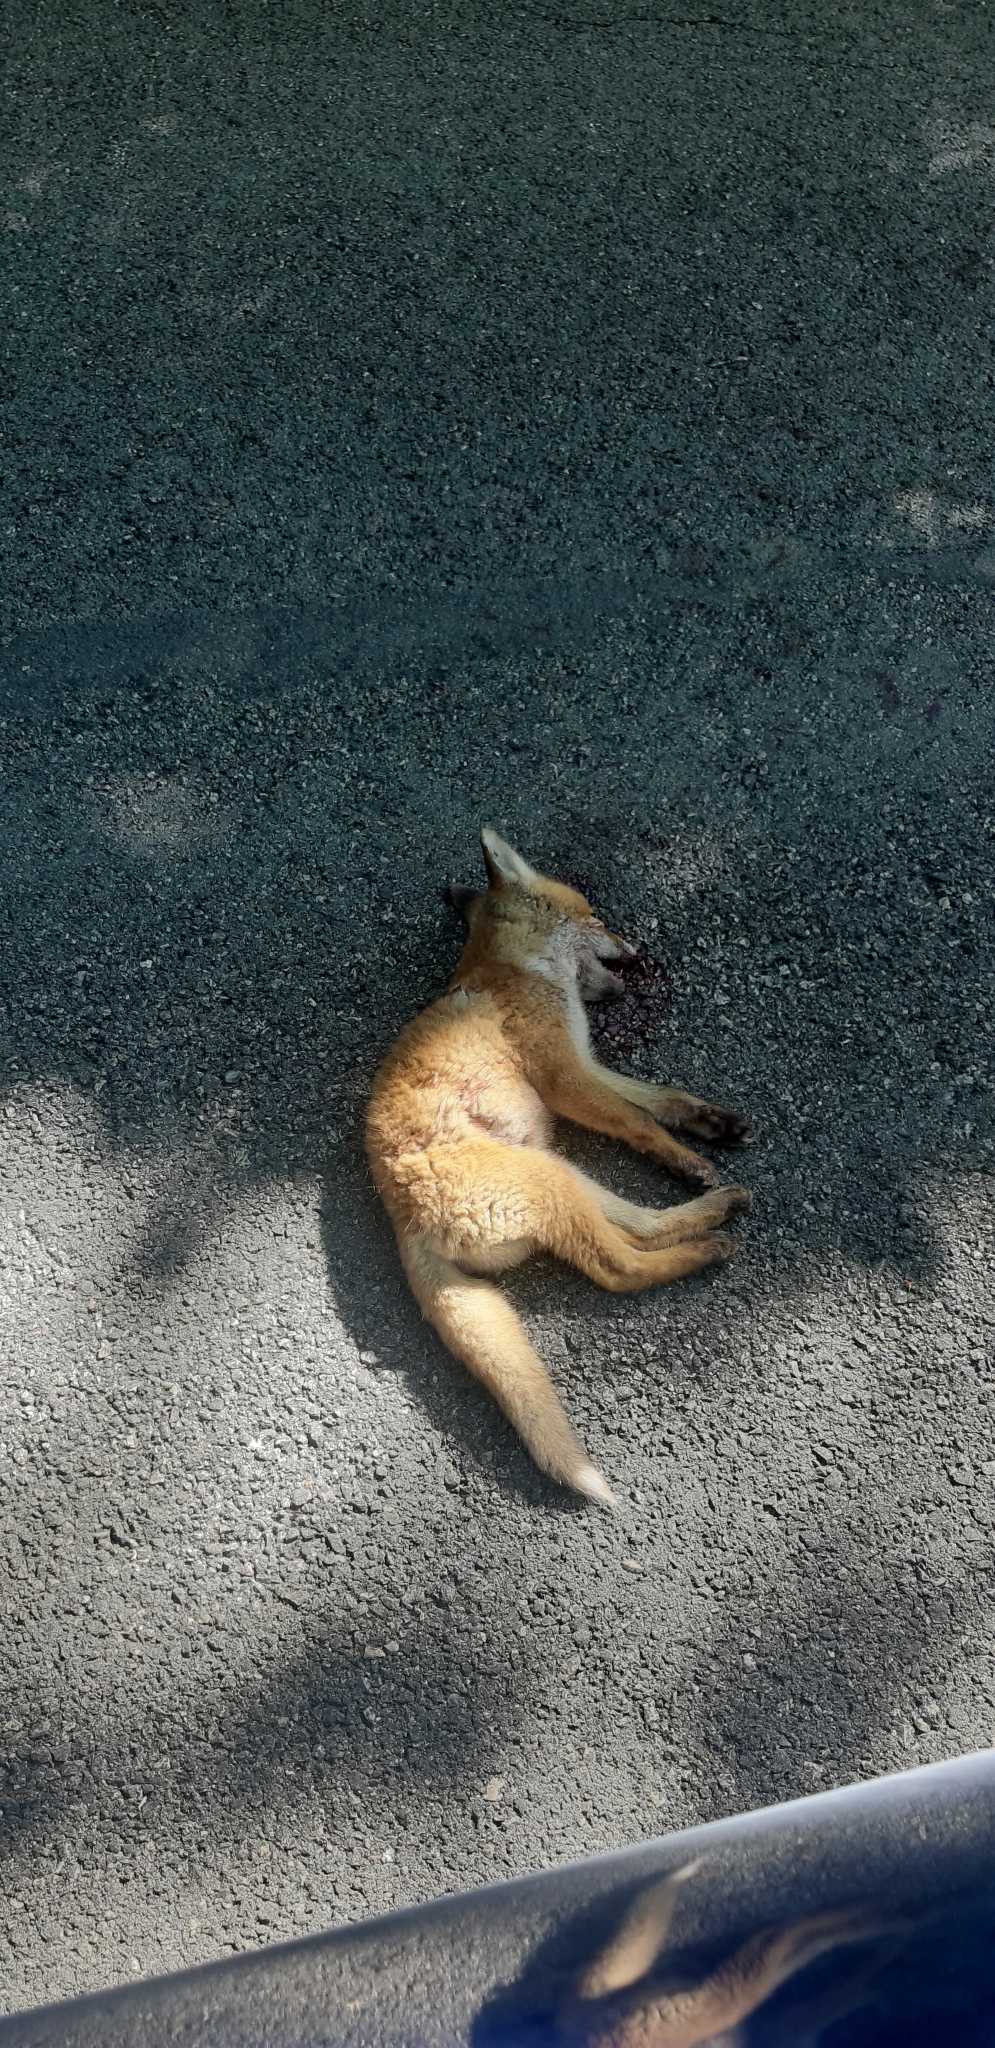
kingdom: Animalia
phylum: Chordata
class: Mammalia
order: Carnivora
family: Canidae
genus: Vulpes
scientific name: Vulpes vulpes
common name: Red fox
